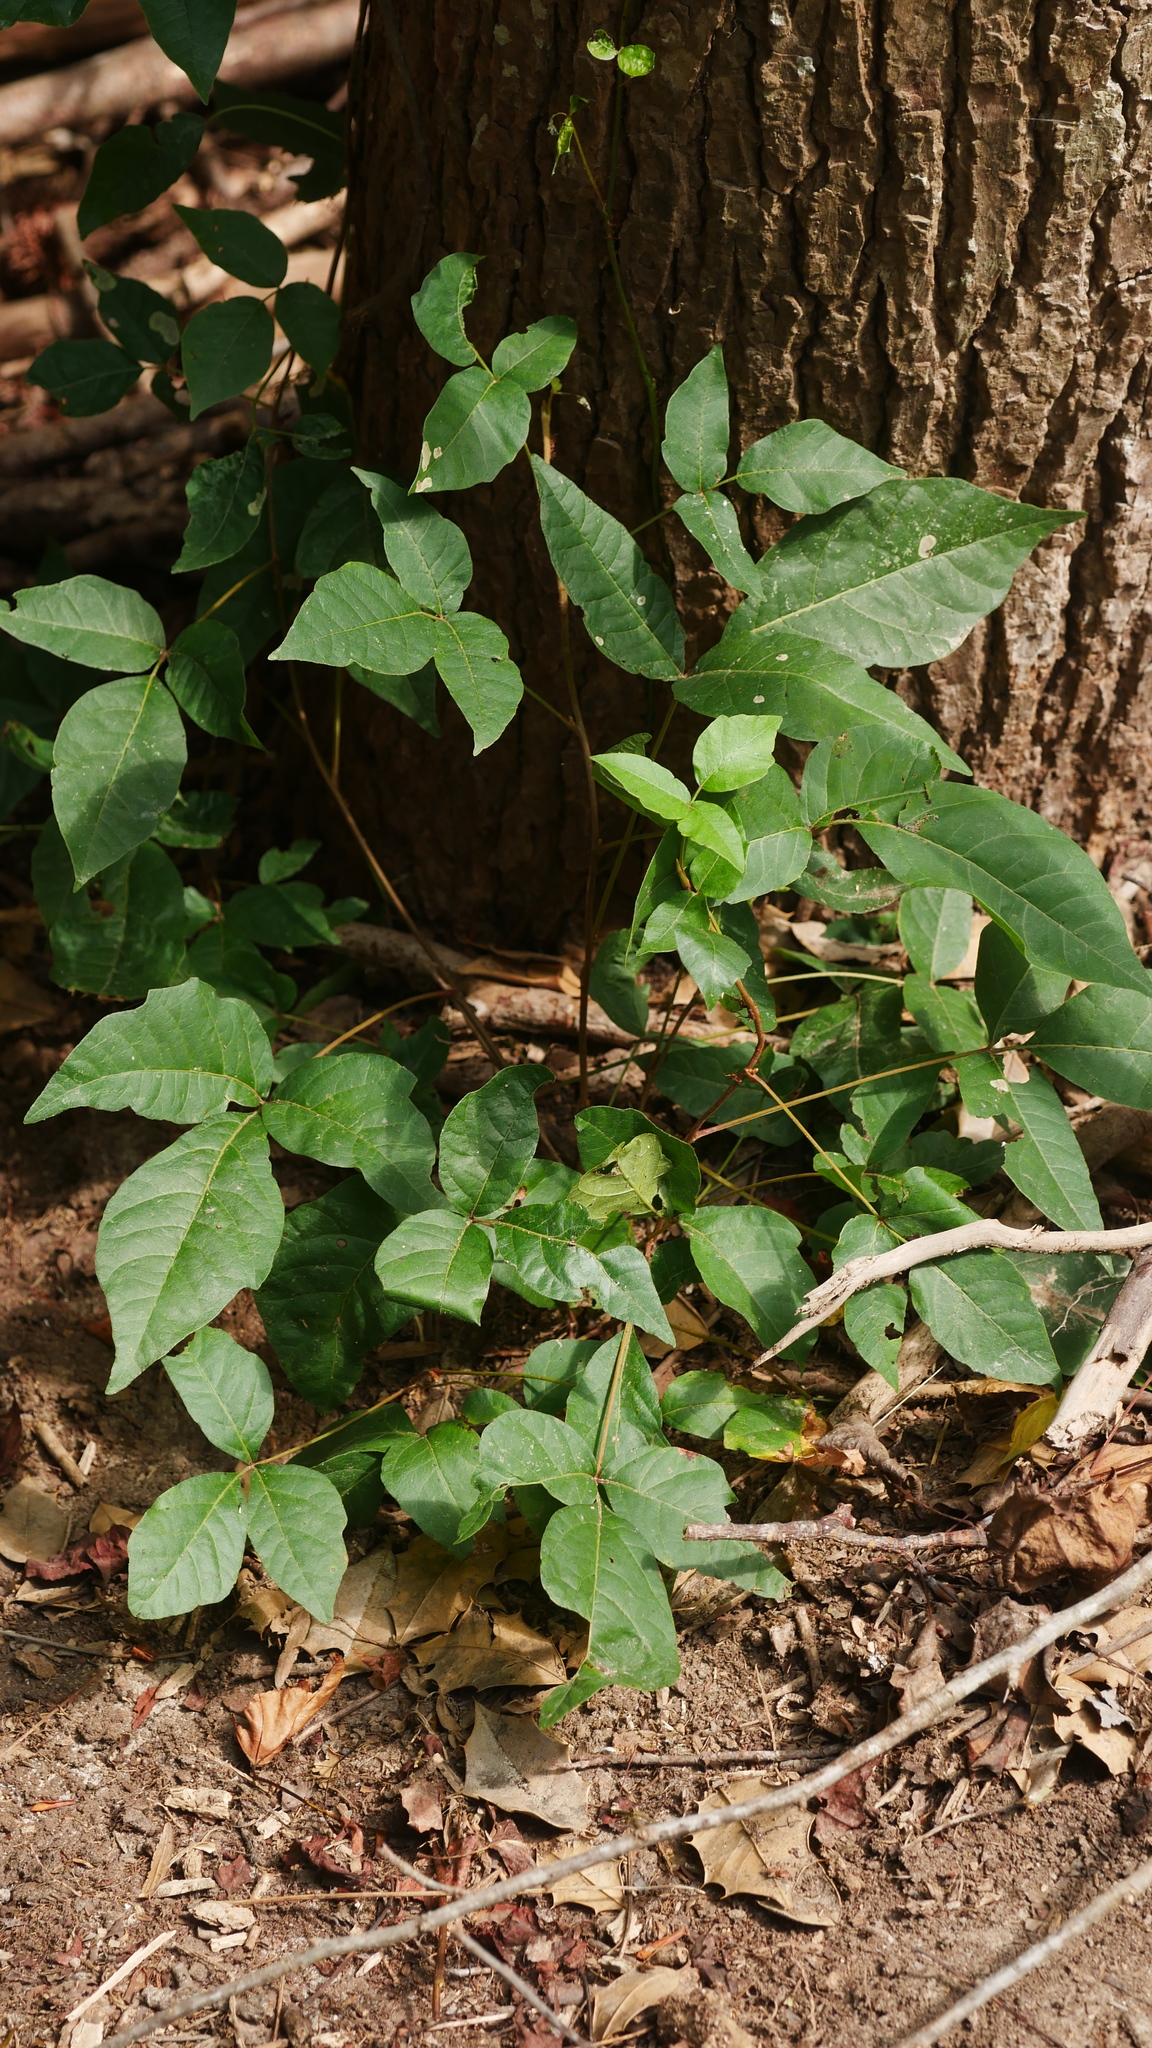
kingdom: Plantae
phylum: Tracheophyta
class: Magnoliopsida
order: Sapindales
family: Anacardiaceae
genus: Toxicodendron
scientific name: Toxicodendron radicans
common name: Poison ivy
